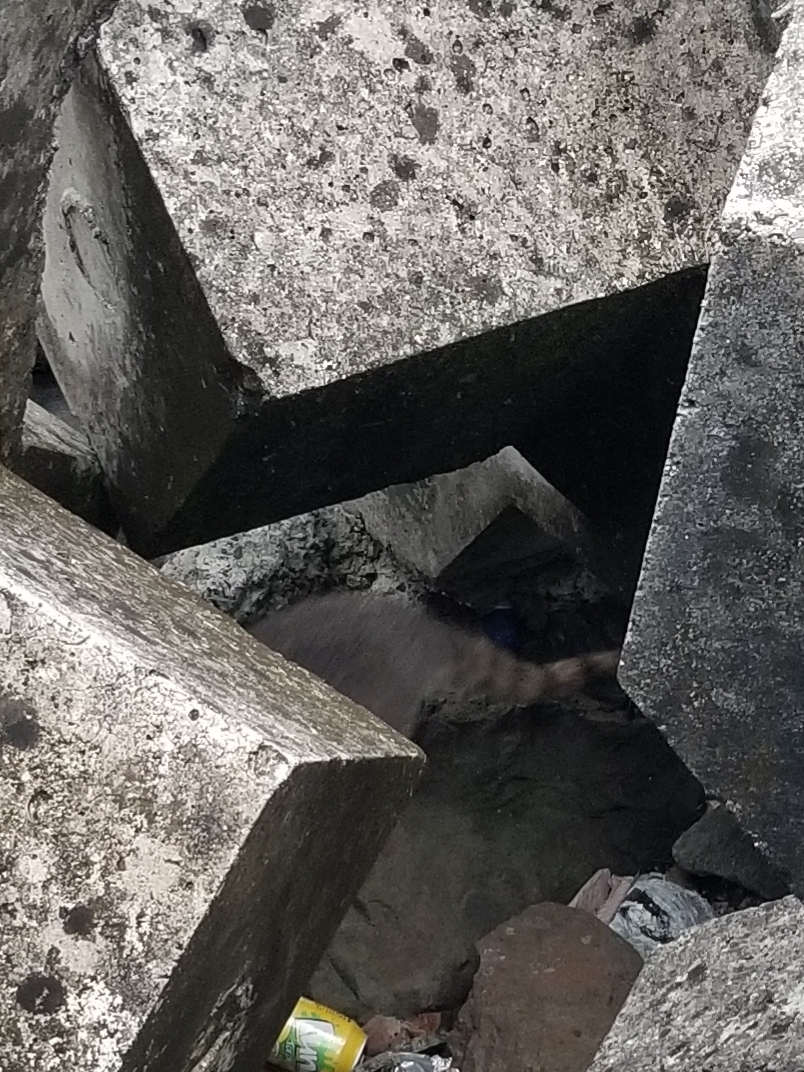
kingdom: Animalia
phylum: Chordata
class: Mammalia
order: Carnivora
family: Procyonidae
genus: Procyon
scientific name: Procyon lotor
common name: Raccoon
